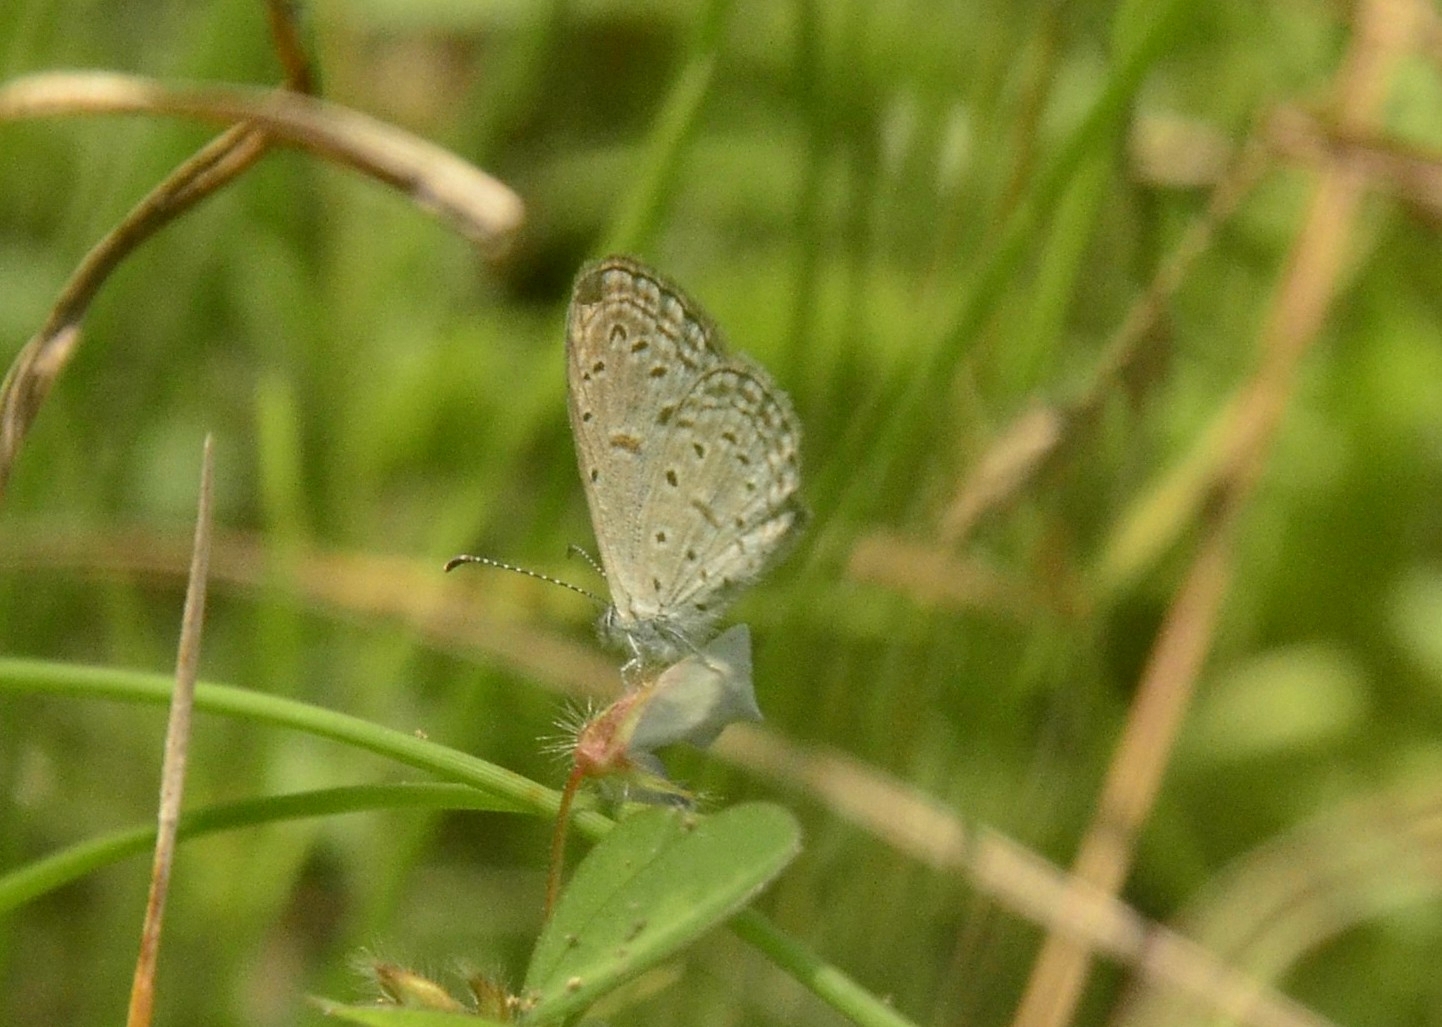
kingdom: Animalia
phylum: Arthropoda
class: Insecta
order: Lepidoptera
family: Lycaenidae
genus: Zizula
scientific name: Zizula hylax
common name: Gaika blue
